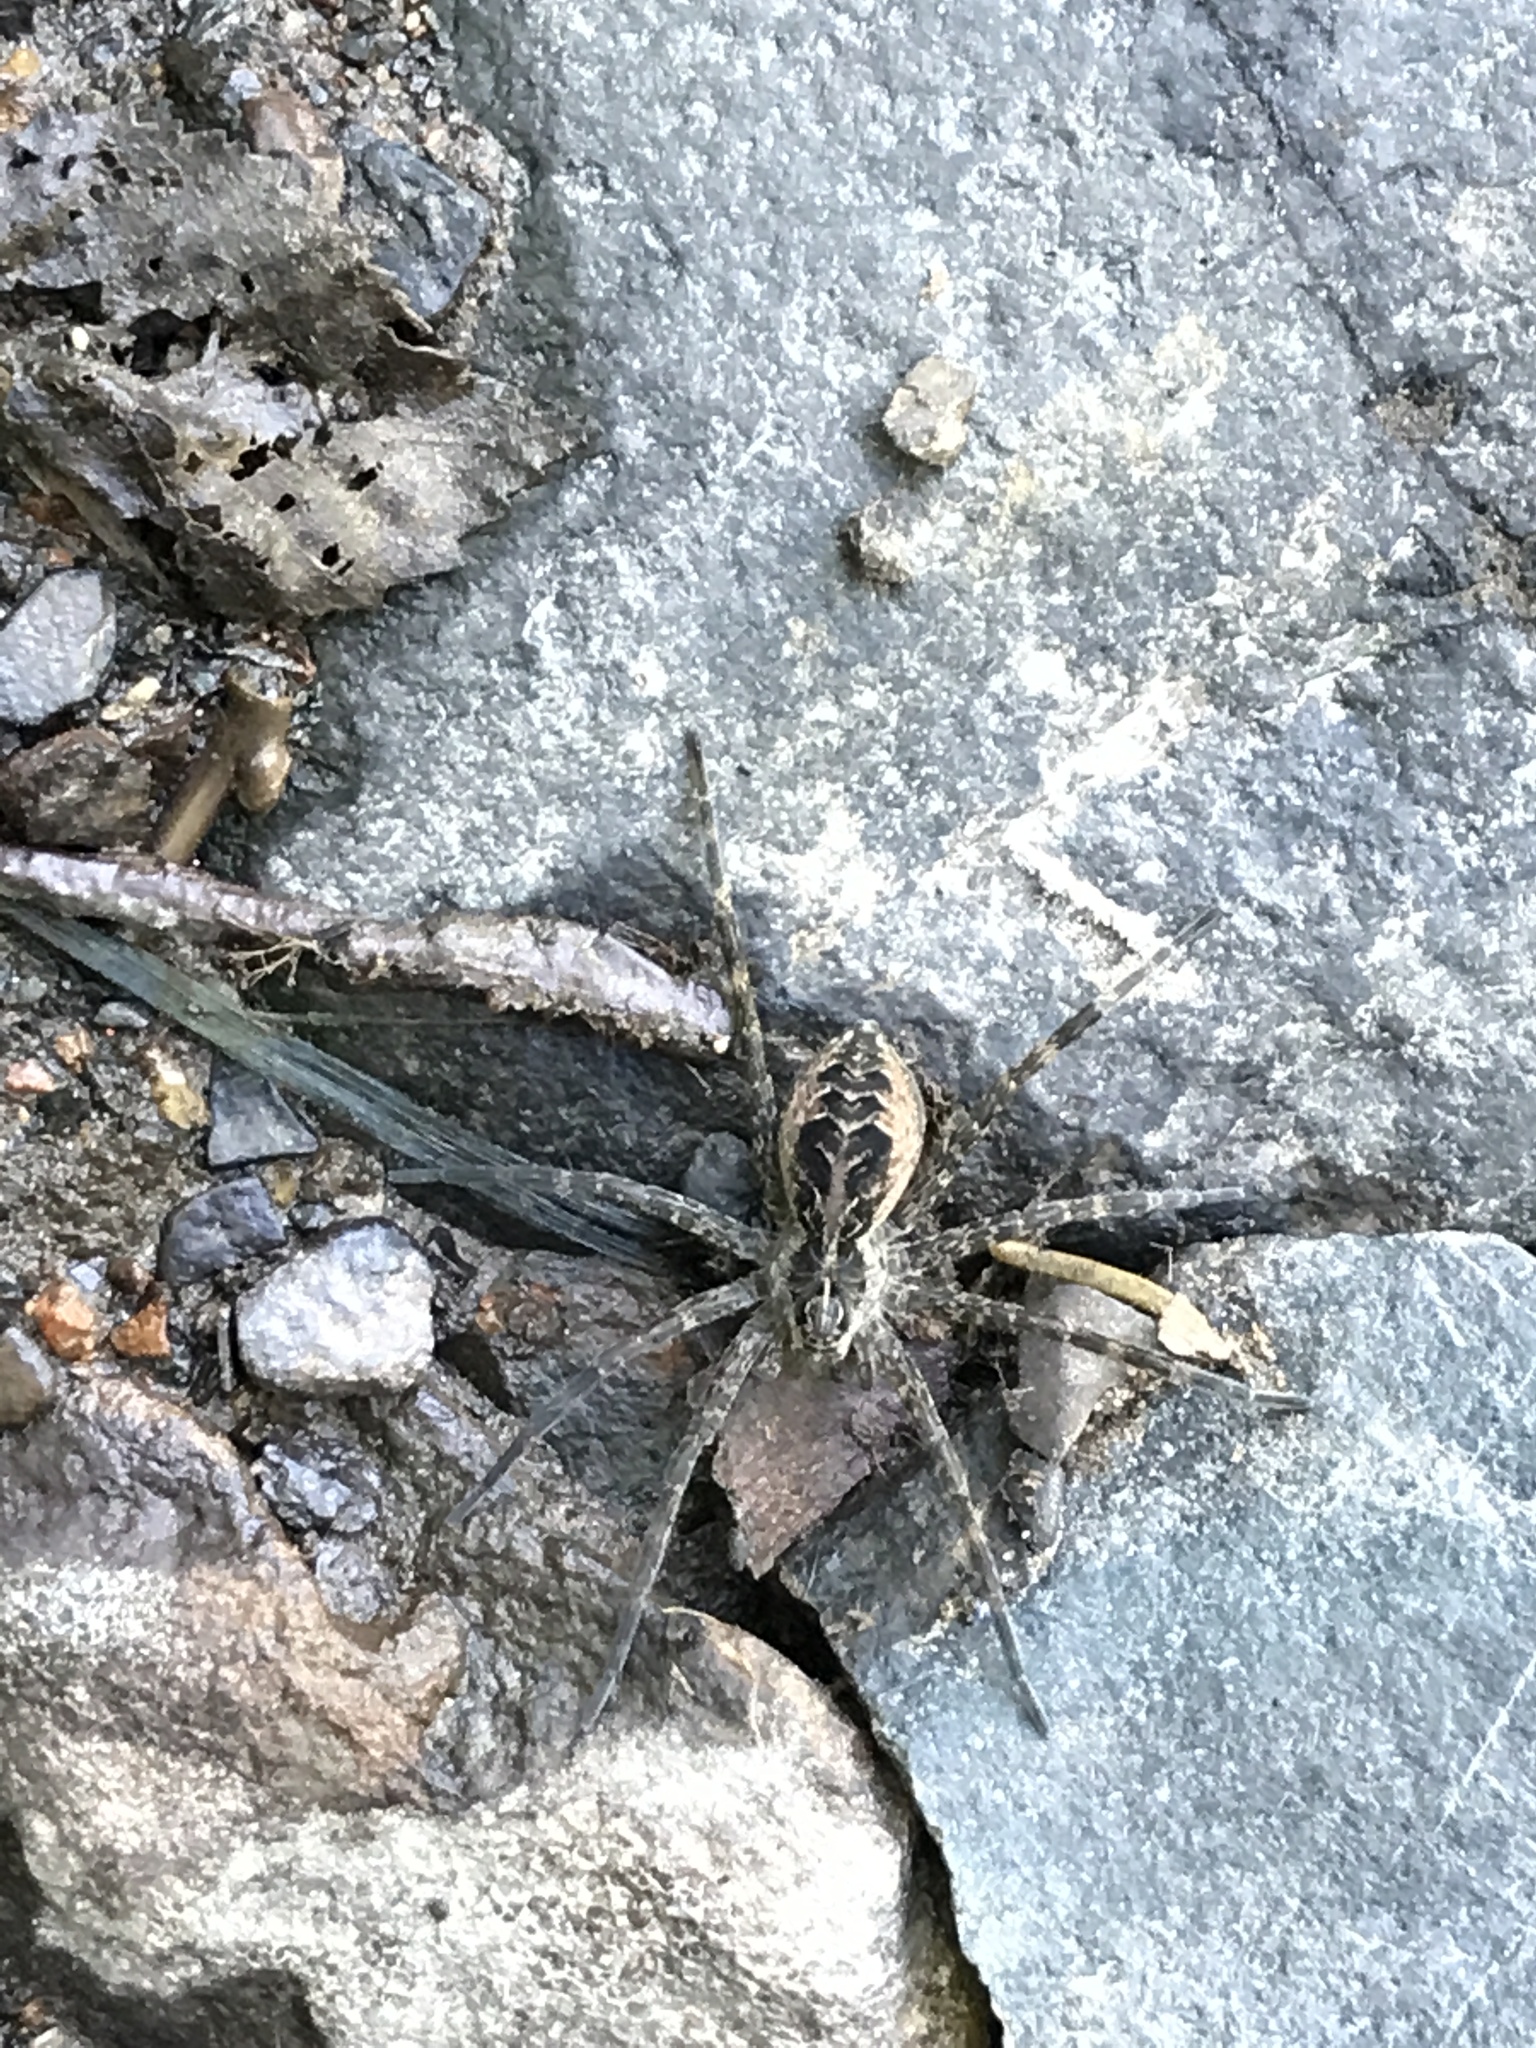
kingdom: Animalia
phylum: Arthropoda
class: Arachnida
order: Araneae
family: Pisauridae
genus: Dolomedes
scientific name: Dolomedes scriptus
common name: Striped fishing spider
